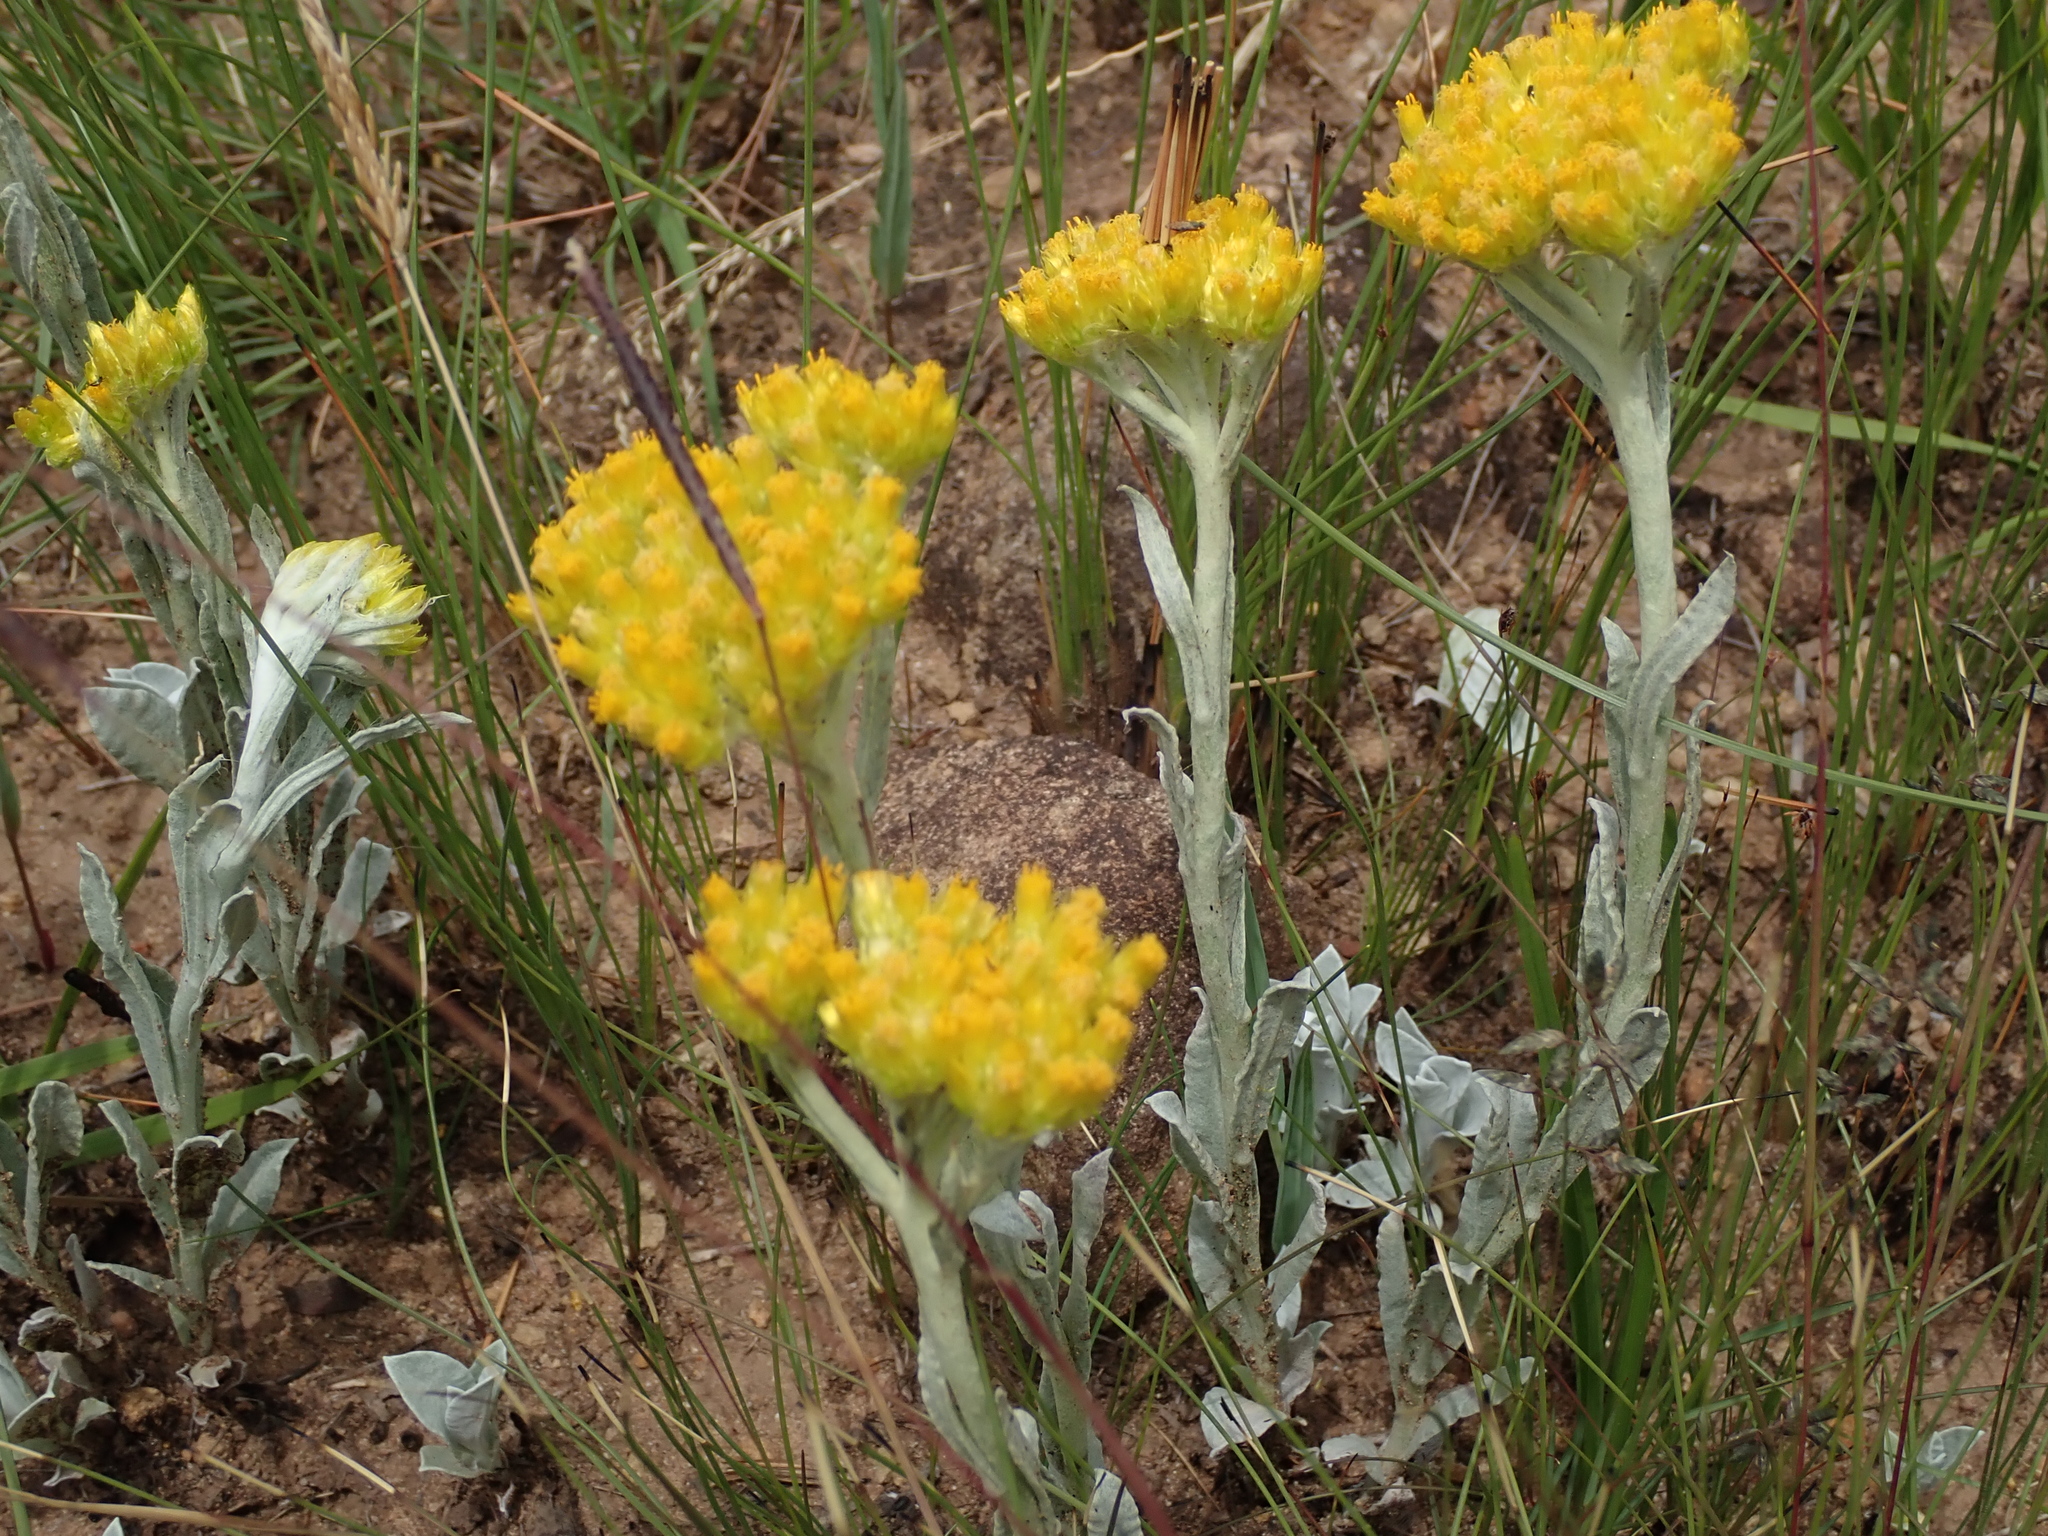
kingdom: Plantae
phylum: Tracheophyta
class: Magnoliopsida
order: Asterales
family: Asteraceae
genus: Helichrysum
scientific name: Helichrysum oreophilum
